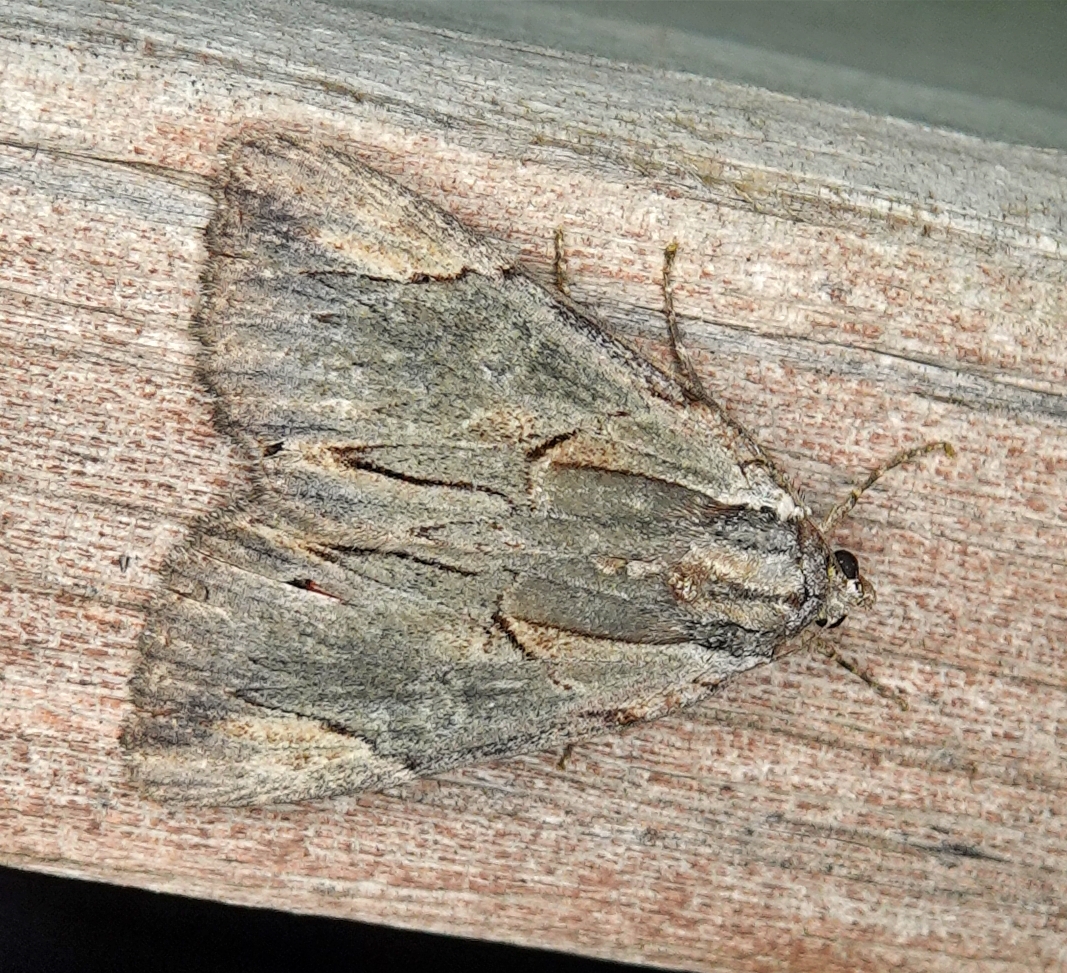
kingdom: Animalia
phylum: Arthropoda
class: Insecta
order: Lepidoptera
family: Erebidae
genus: Catocala
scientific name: Catocala ultronia
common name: Ultronia underwing
